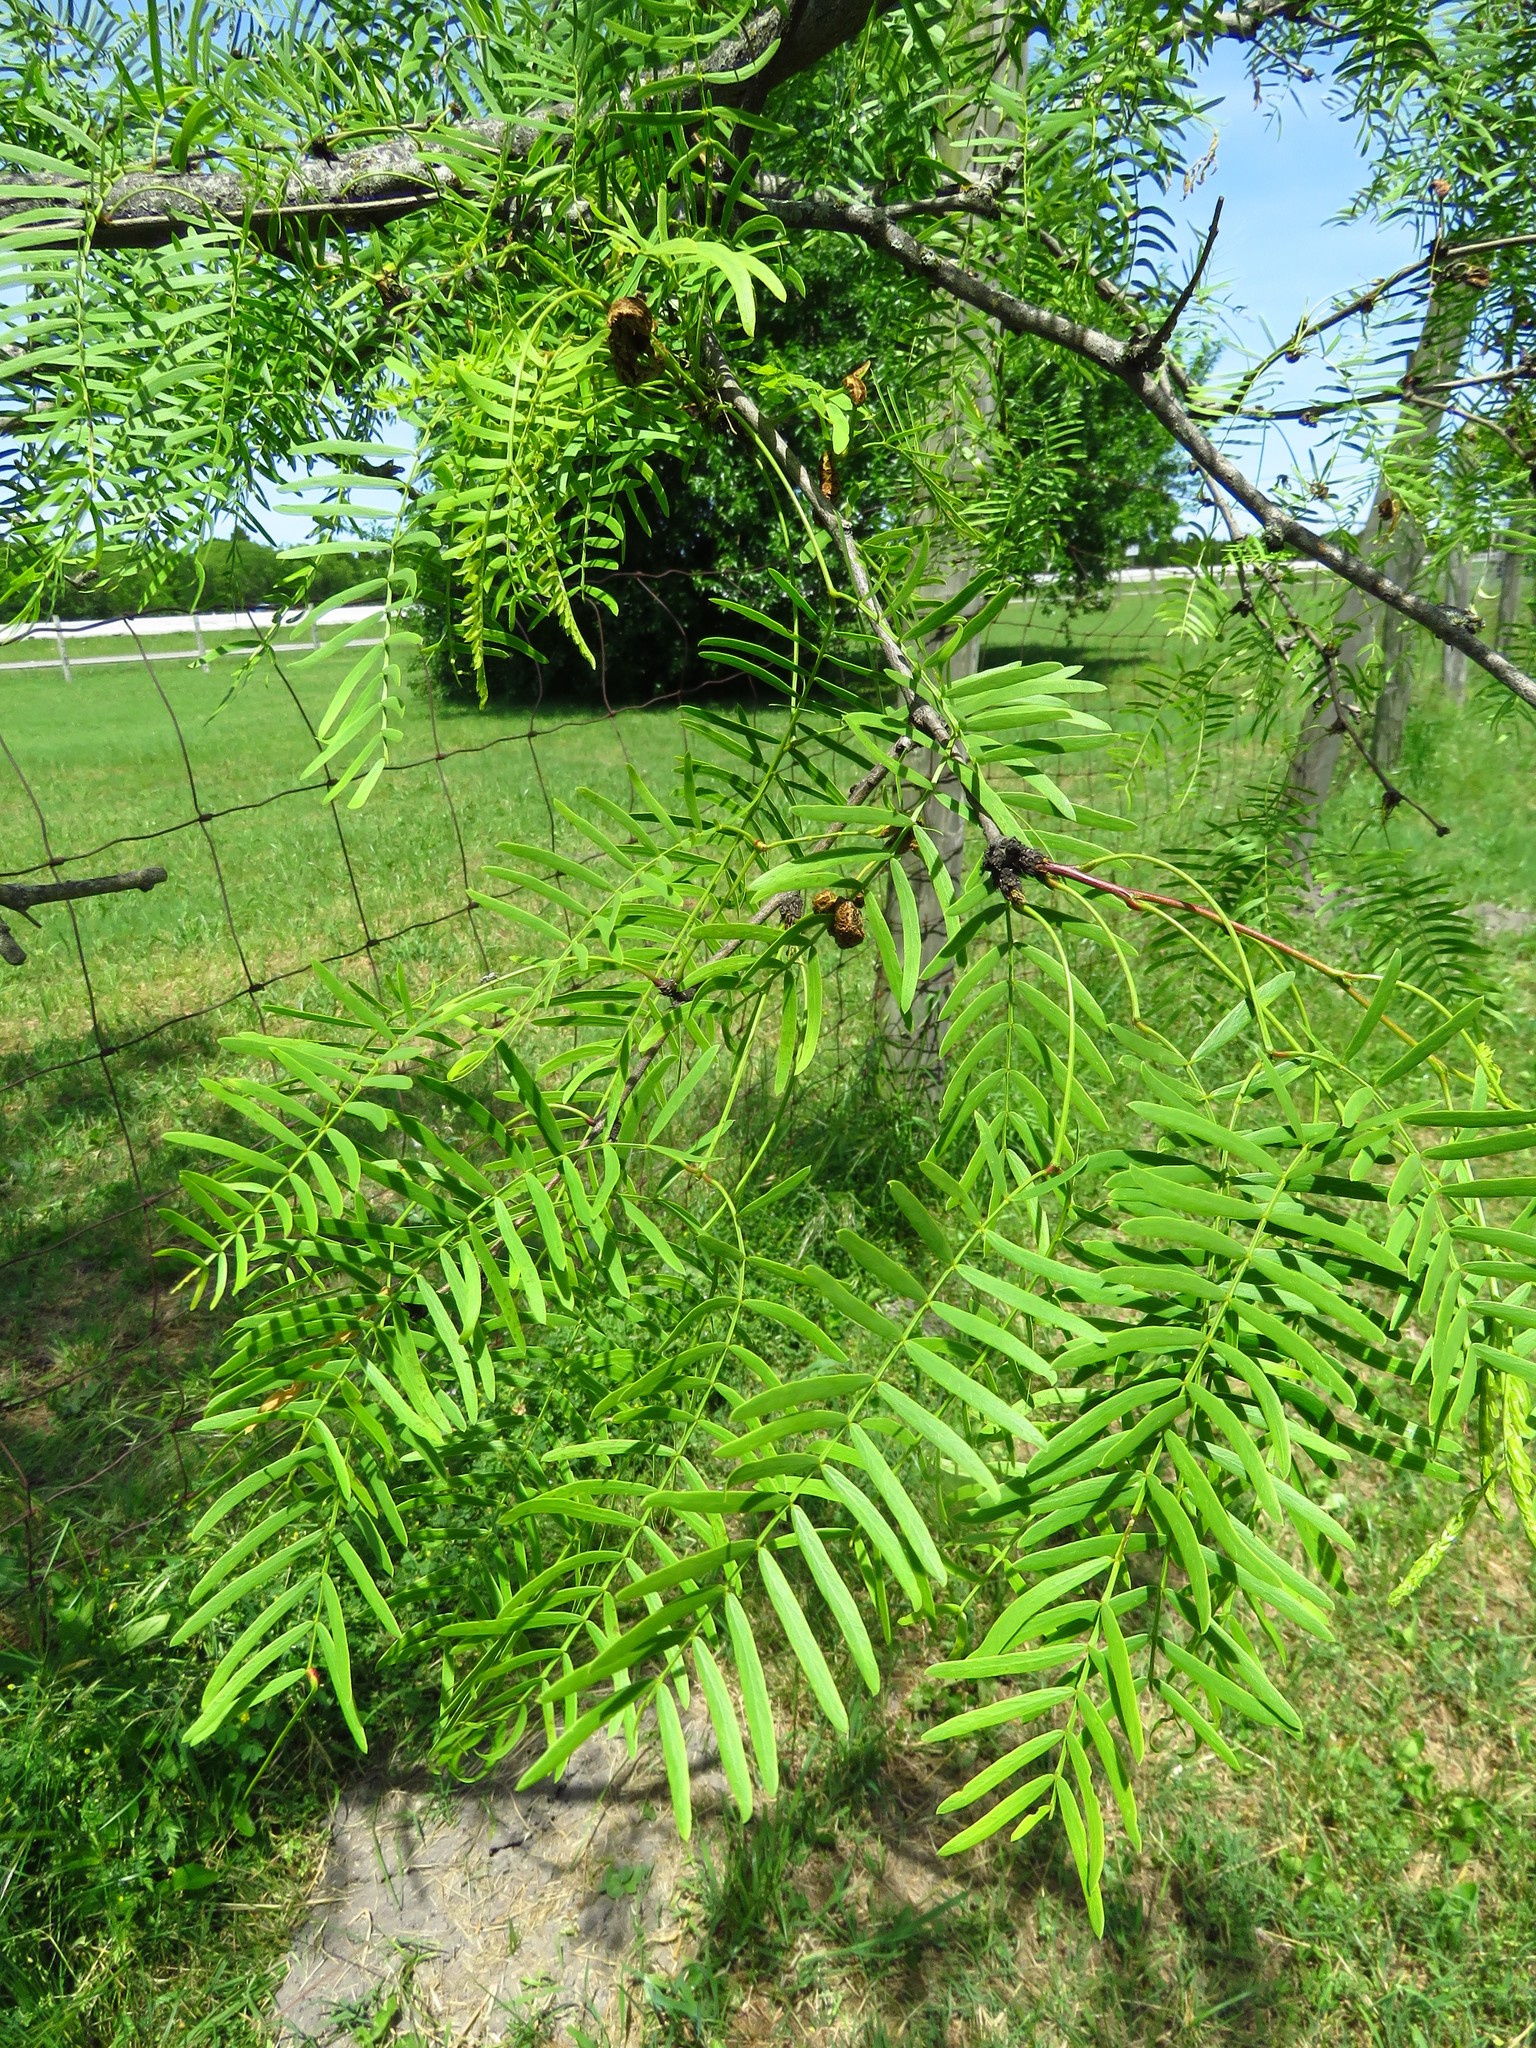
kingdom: Plantae
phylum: Tracheophyta
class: Magnoliopsida
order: Fabales
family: Fabaceae
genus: Prosopis
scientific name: Prosopis glandulosa
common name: Honey mesquite
